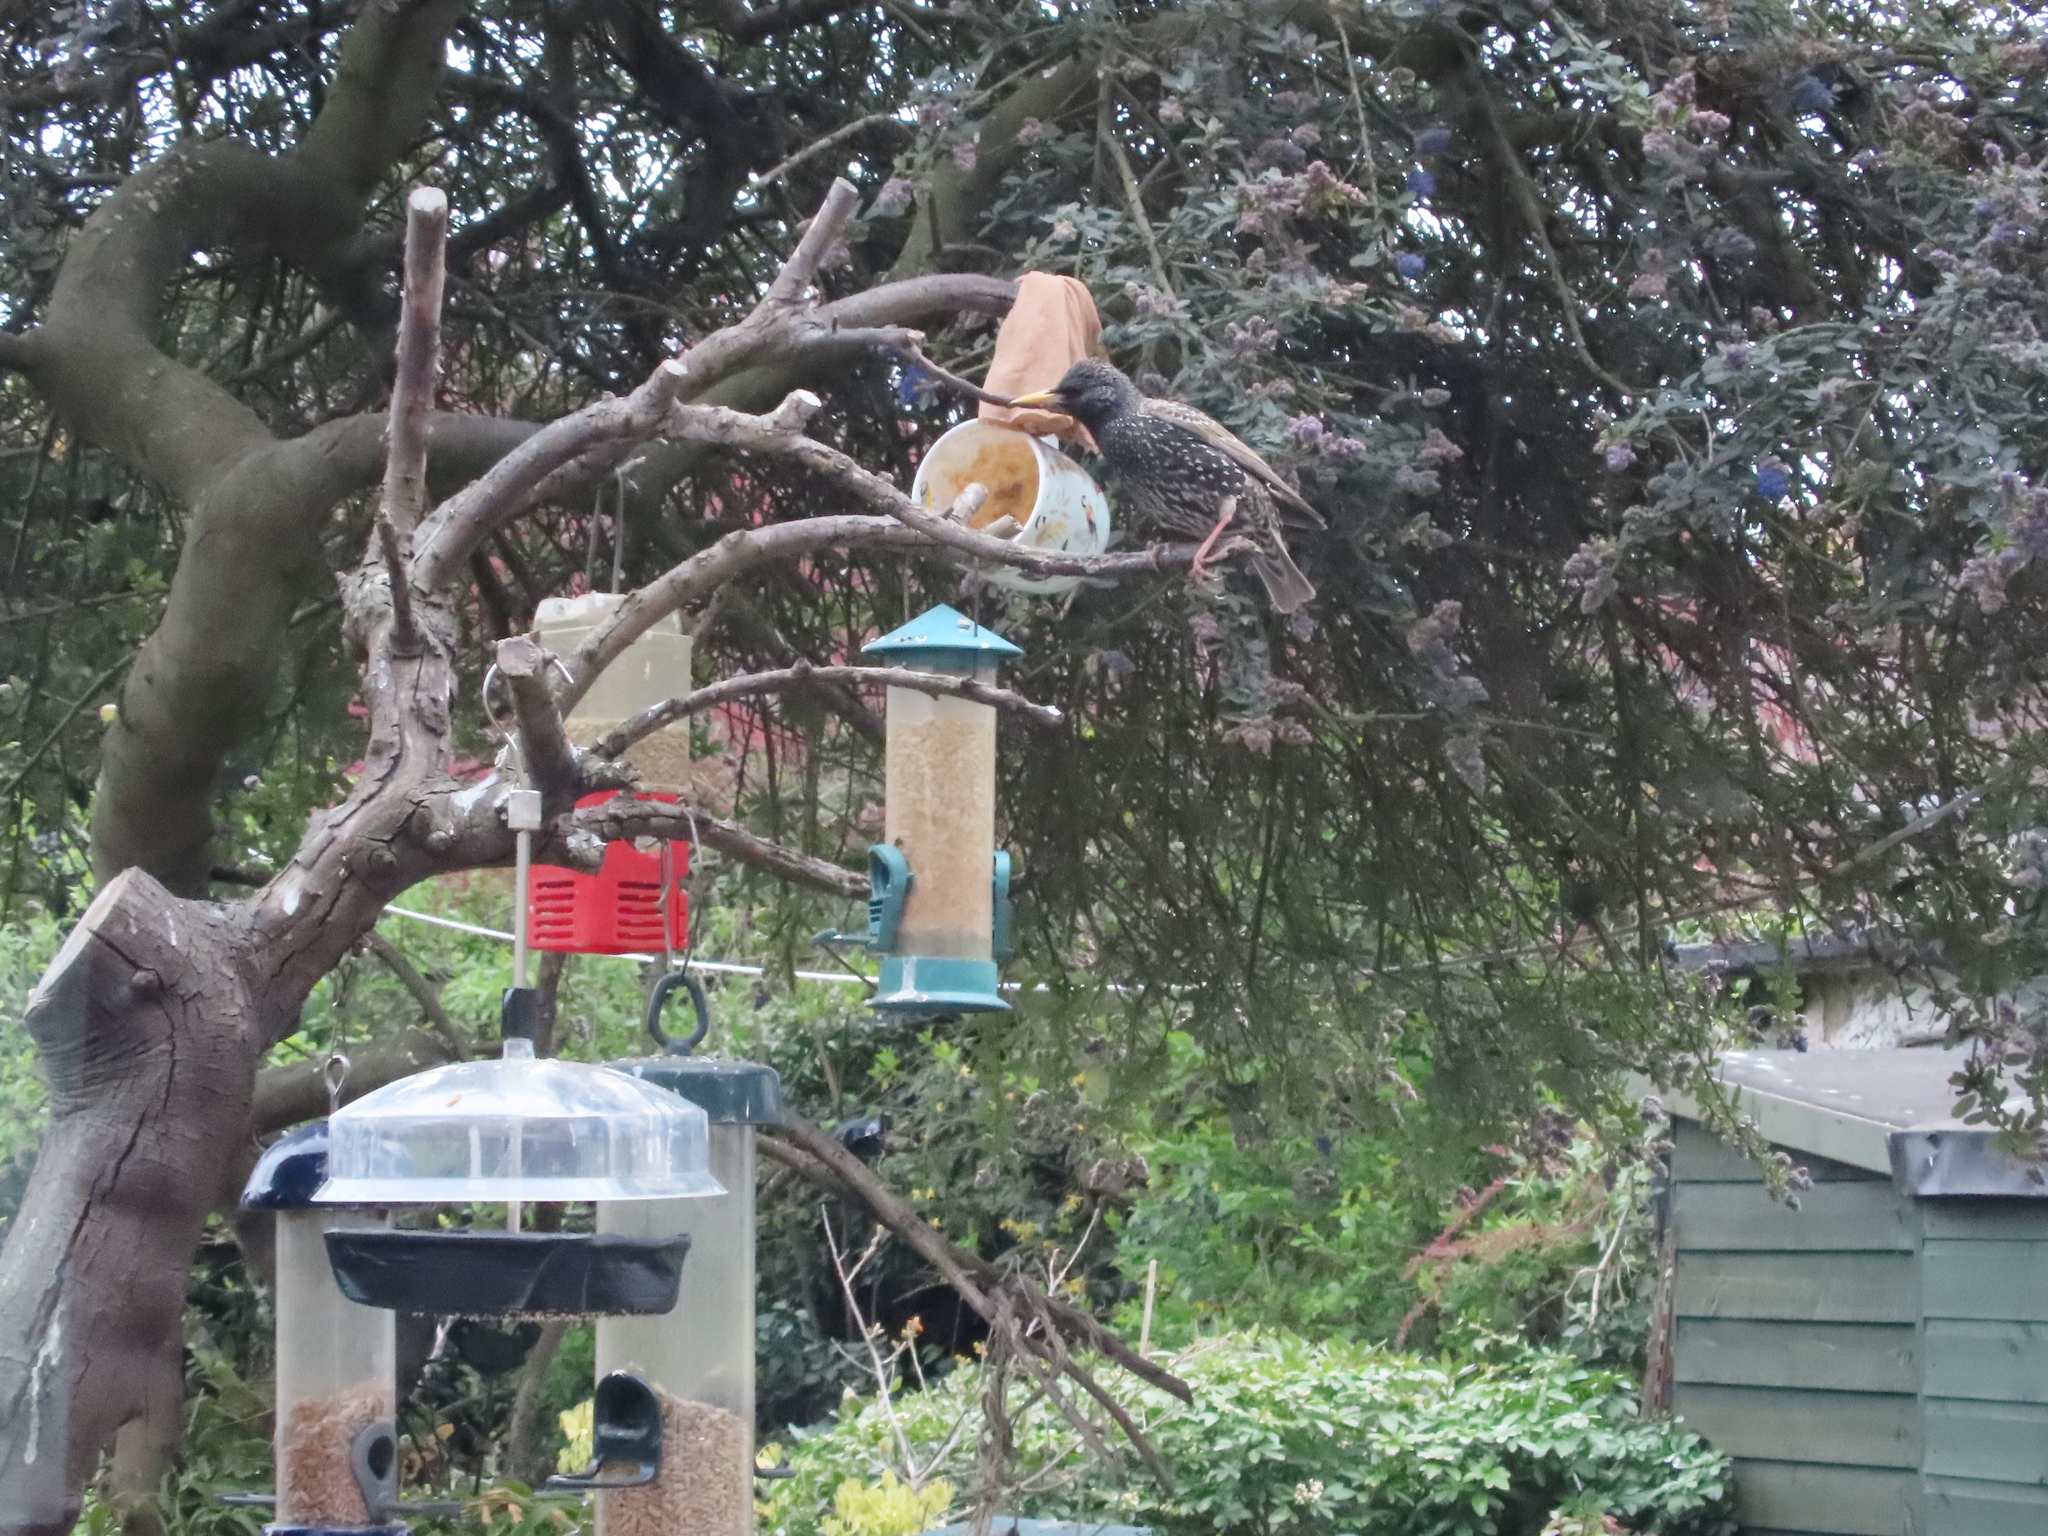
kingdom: Animalia
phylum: Chordata
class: Aves
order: Passeriformes
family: Sturnidae
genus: Sturnus
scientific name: Sturnus vulgaris
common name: Common starling
